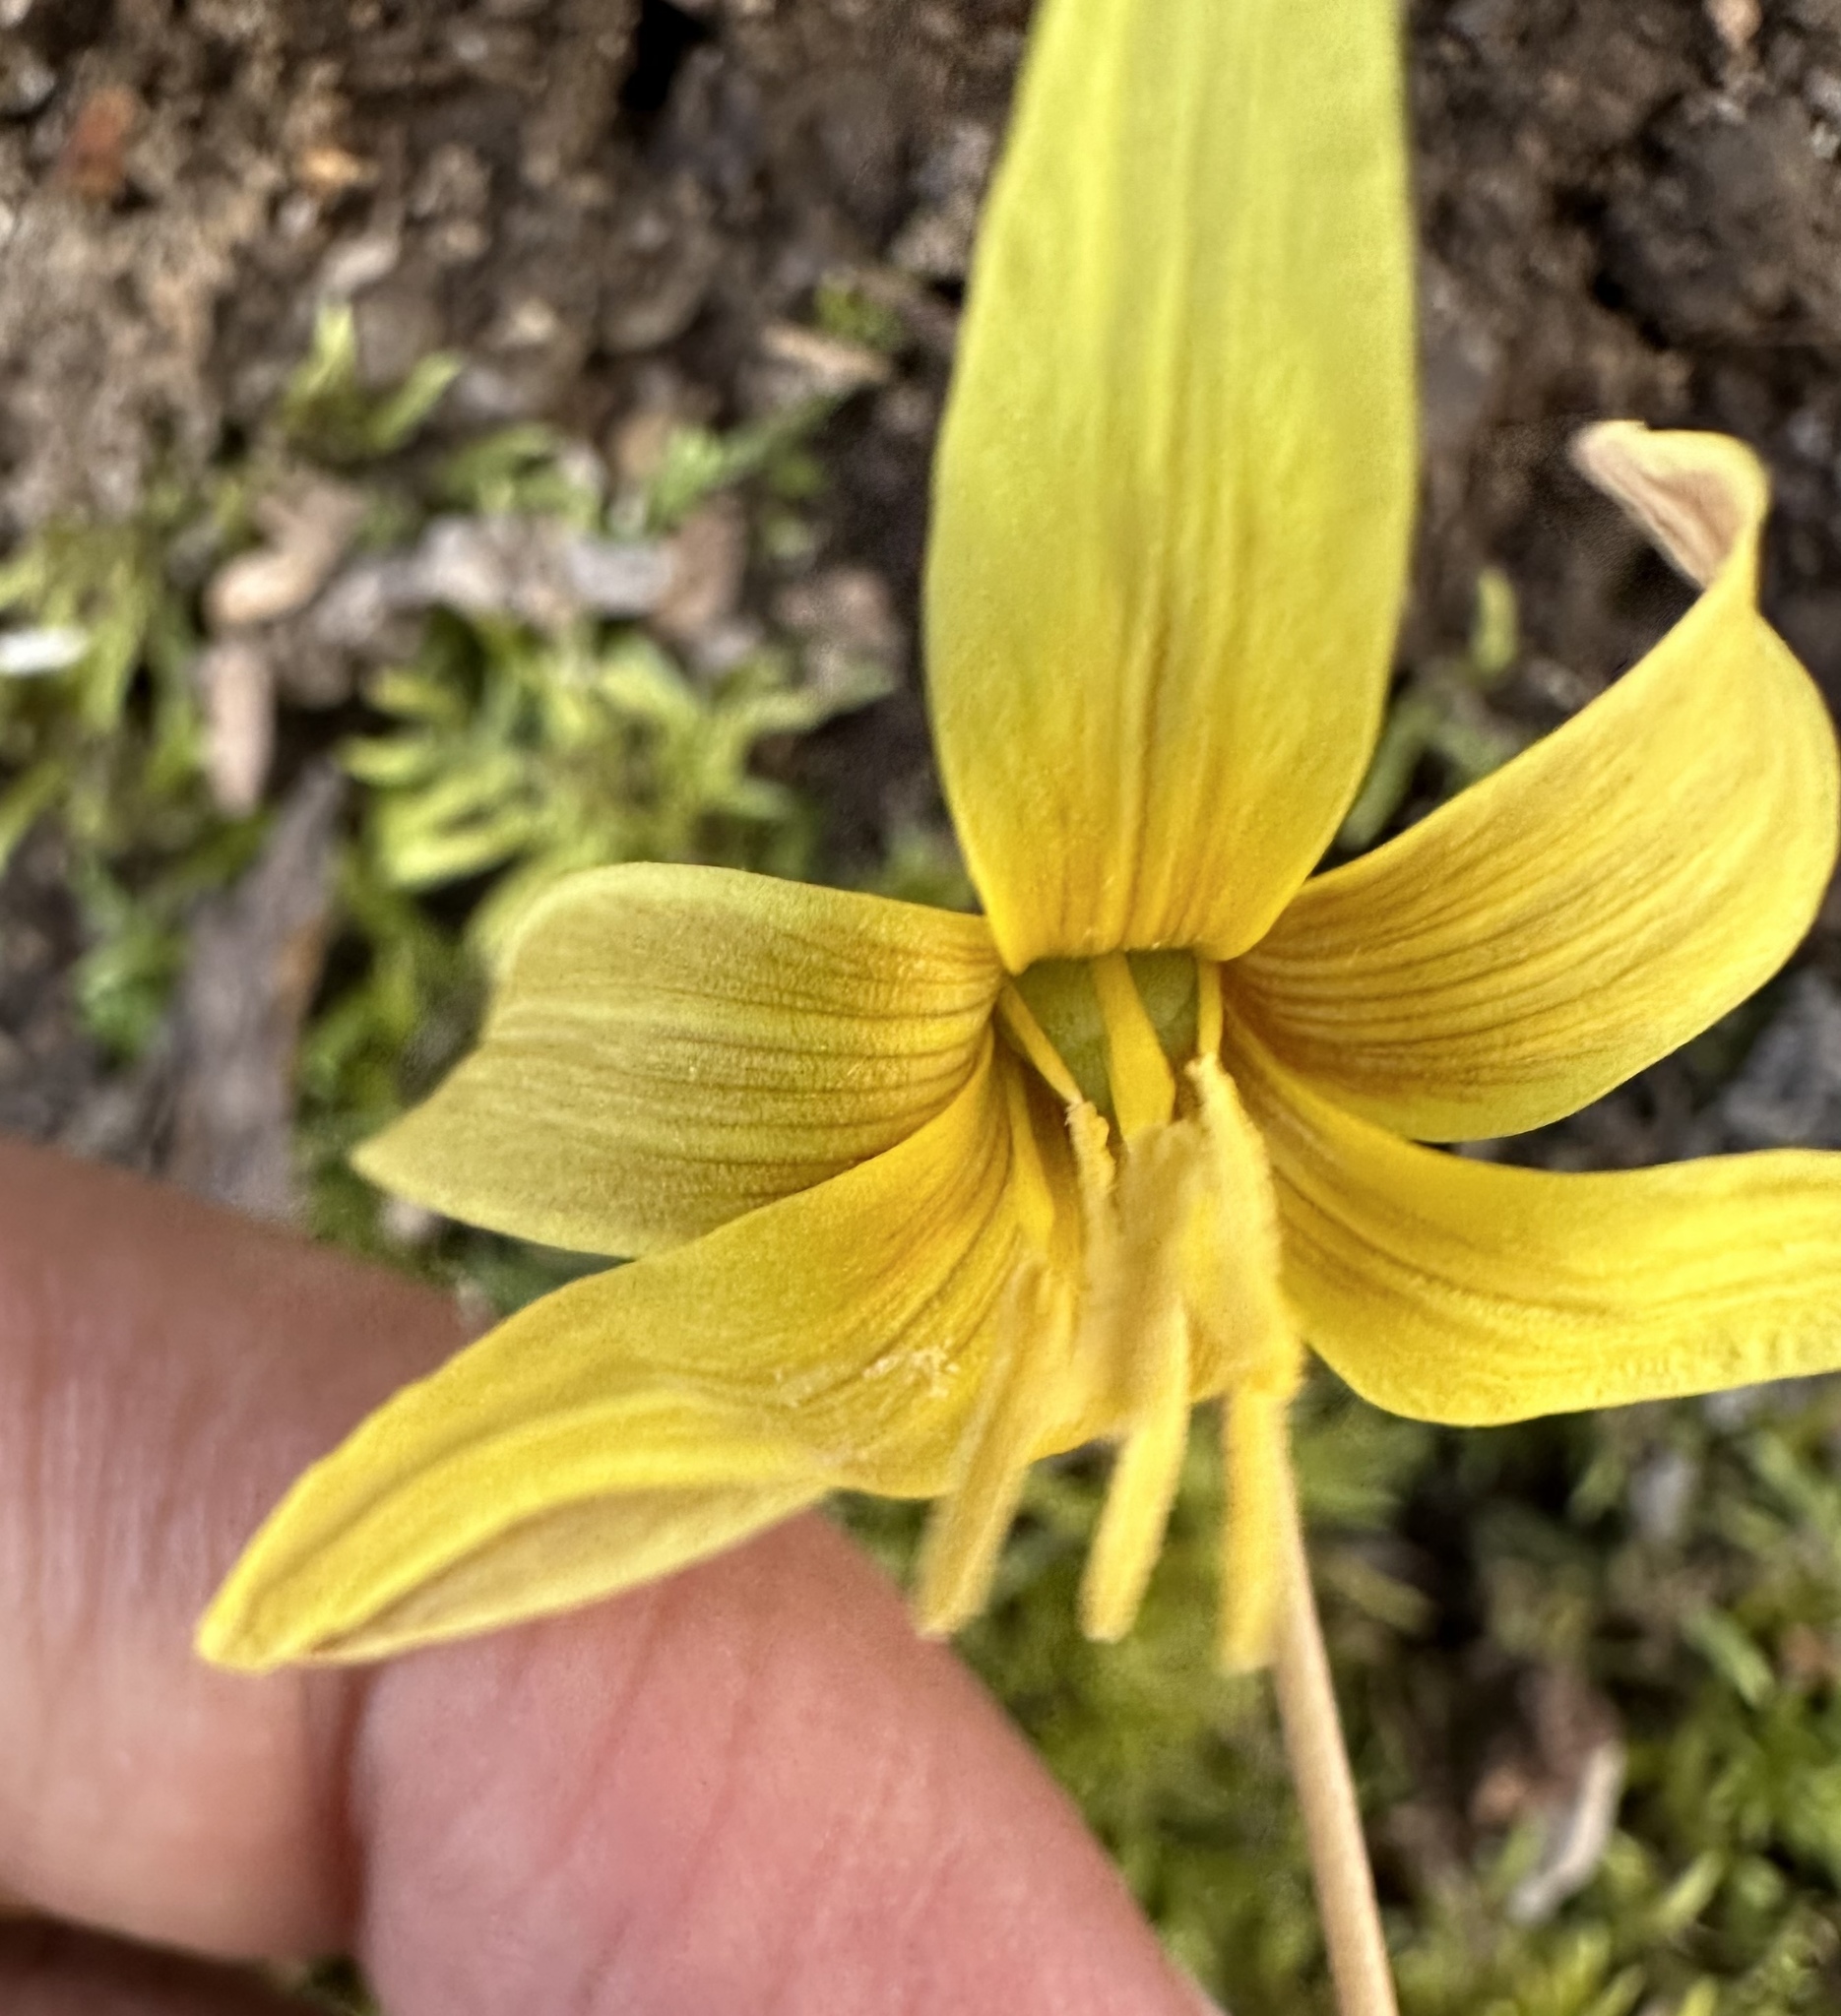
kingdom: Plantae
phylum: Tracheophyta
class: Liliopsida
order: Liliales
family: Liliaceae
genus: Erythronium
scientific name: Erythronium umbilicatum
